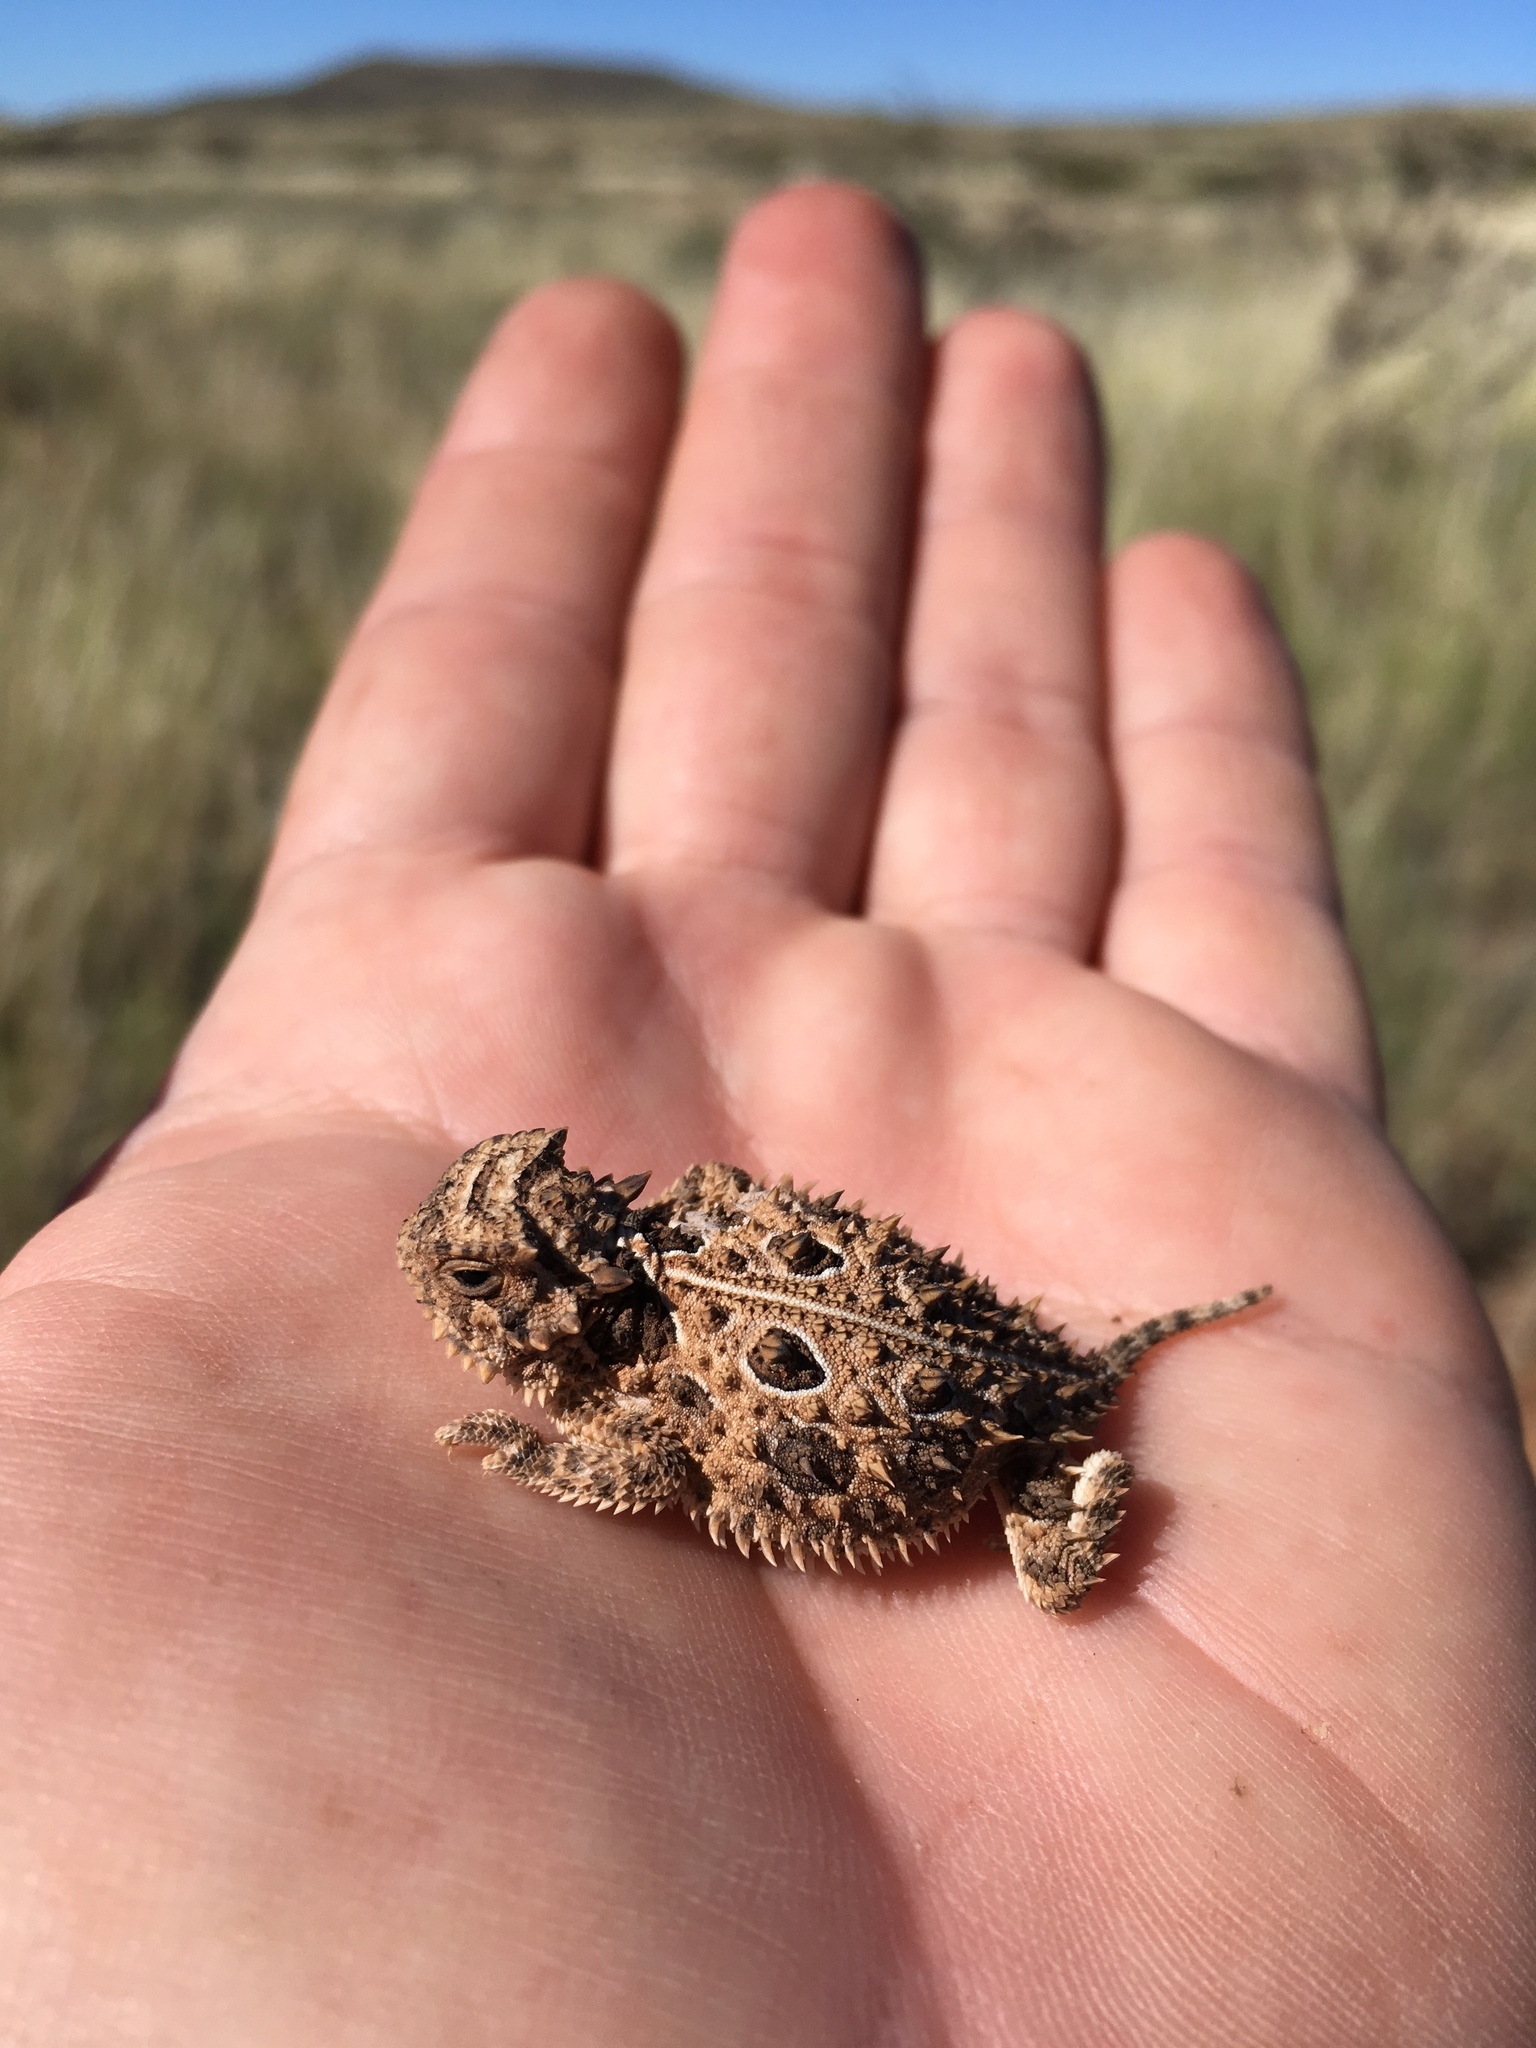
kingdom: Animalia
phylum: Chordata
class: Squamata
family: Phrynosomatidae
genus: Phrynosoma
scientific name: Phrynosoma cornutum
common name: Texas horned lizard
